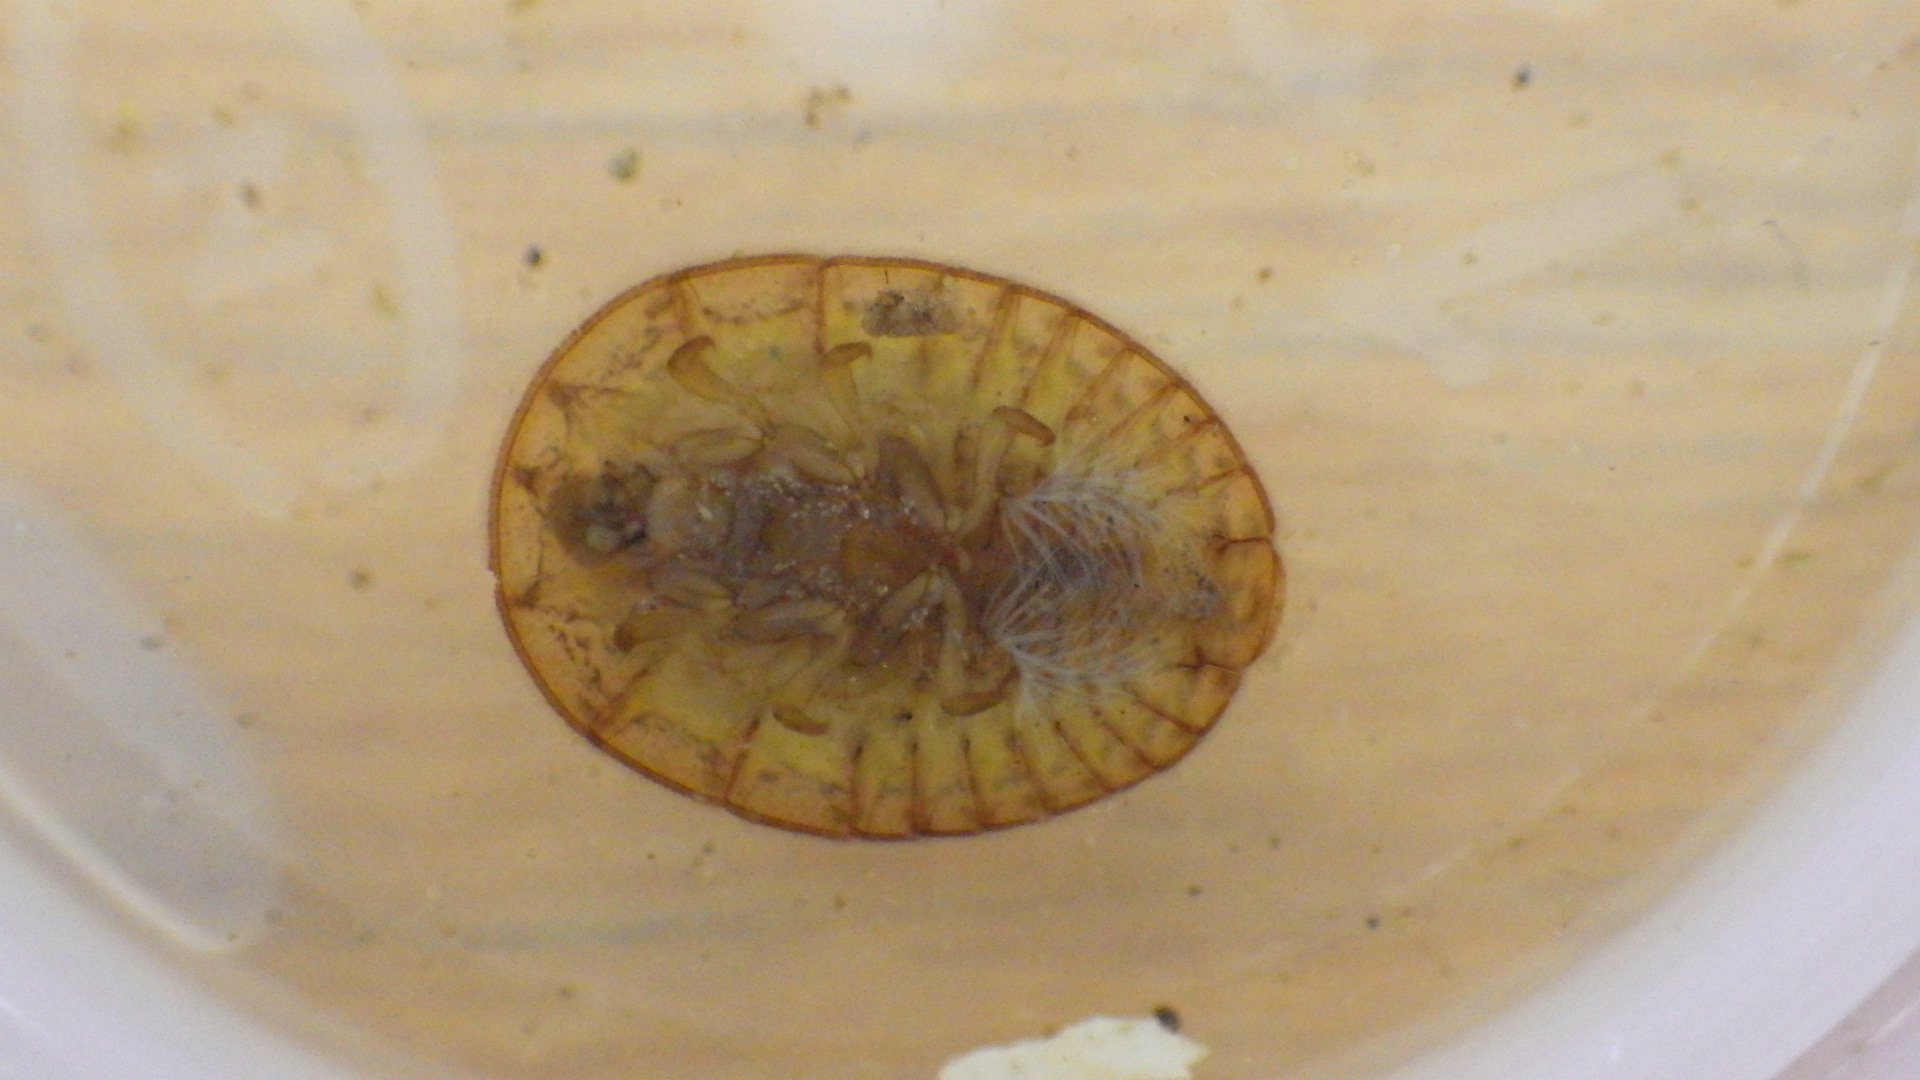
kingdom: Animalia
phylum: Arthropoda
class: Insecta
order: Coleoptera
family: Psephenidae
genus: Psephenus
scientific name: Psephenus herricki
